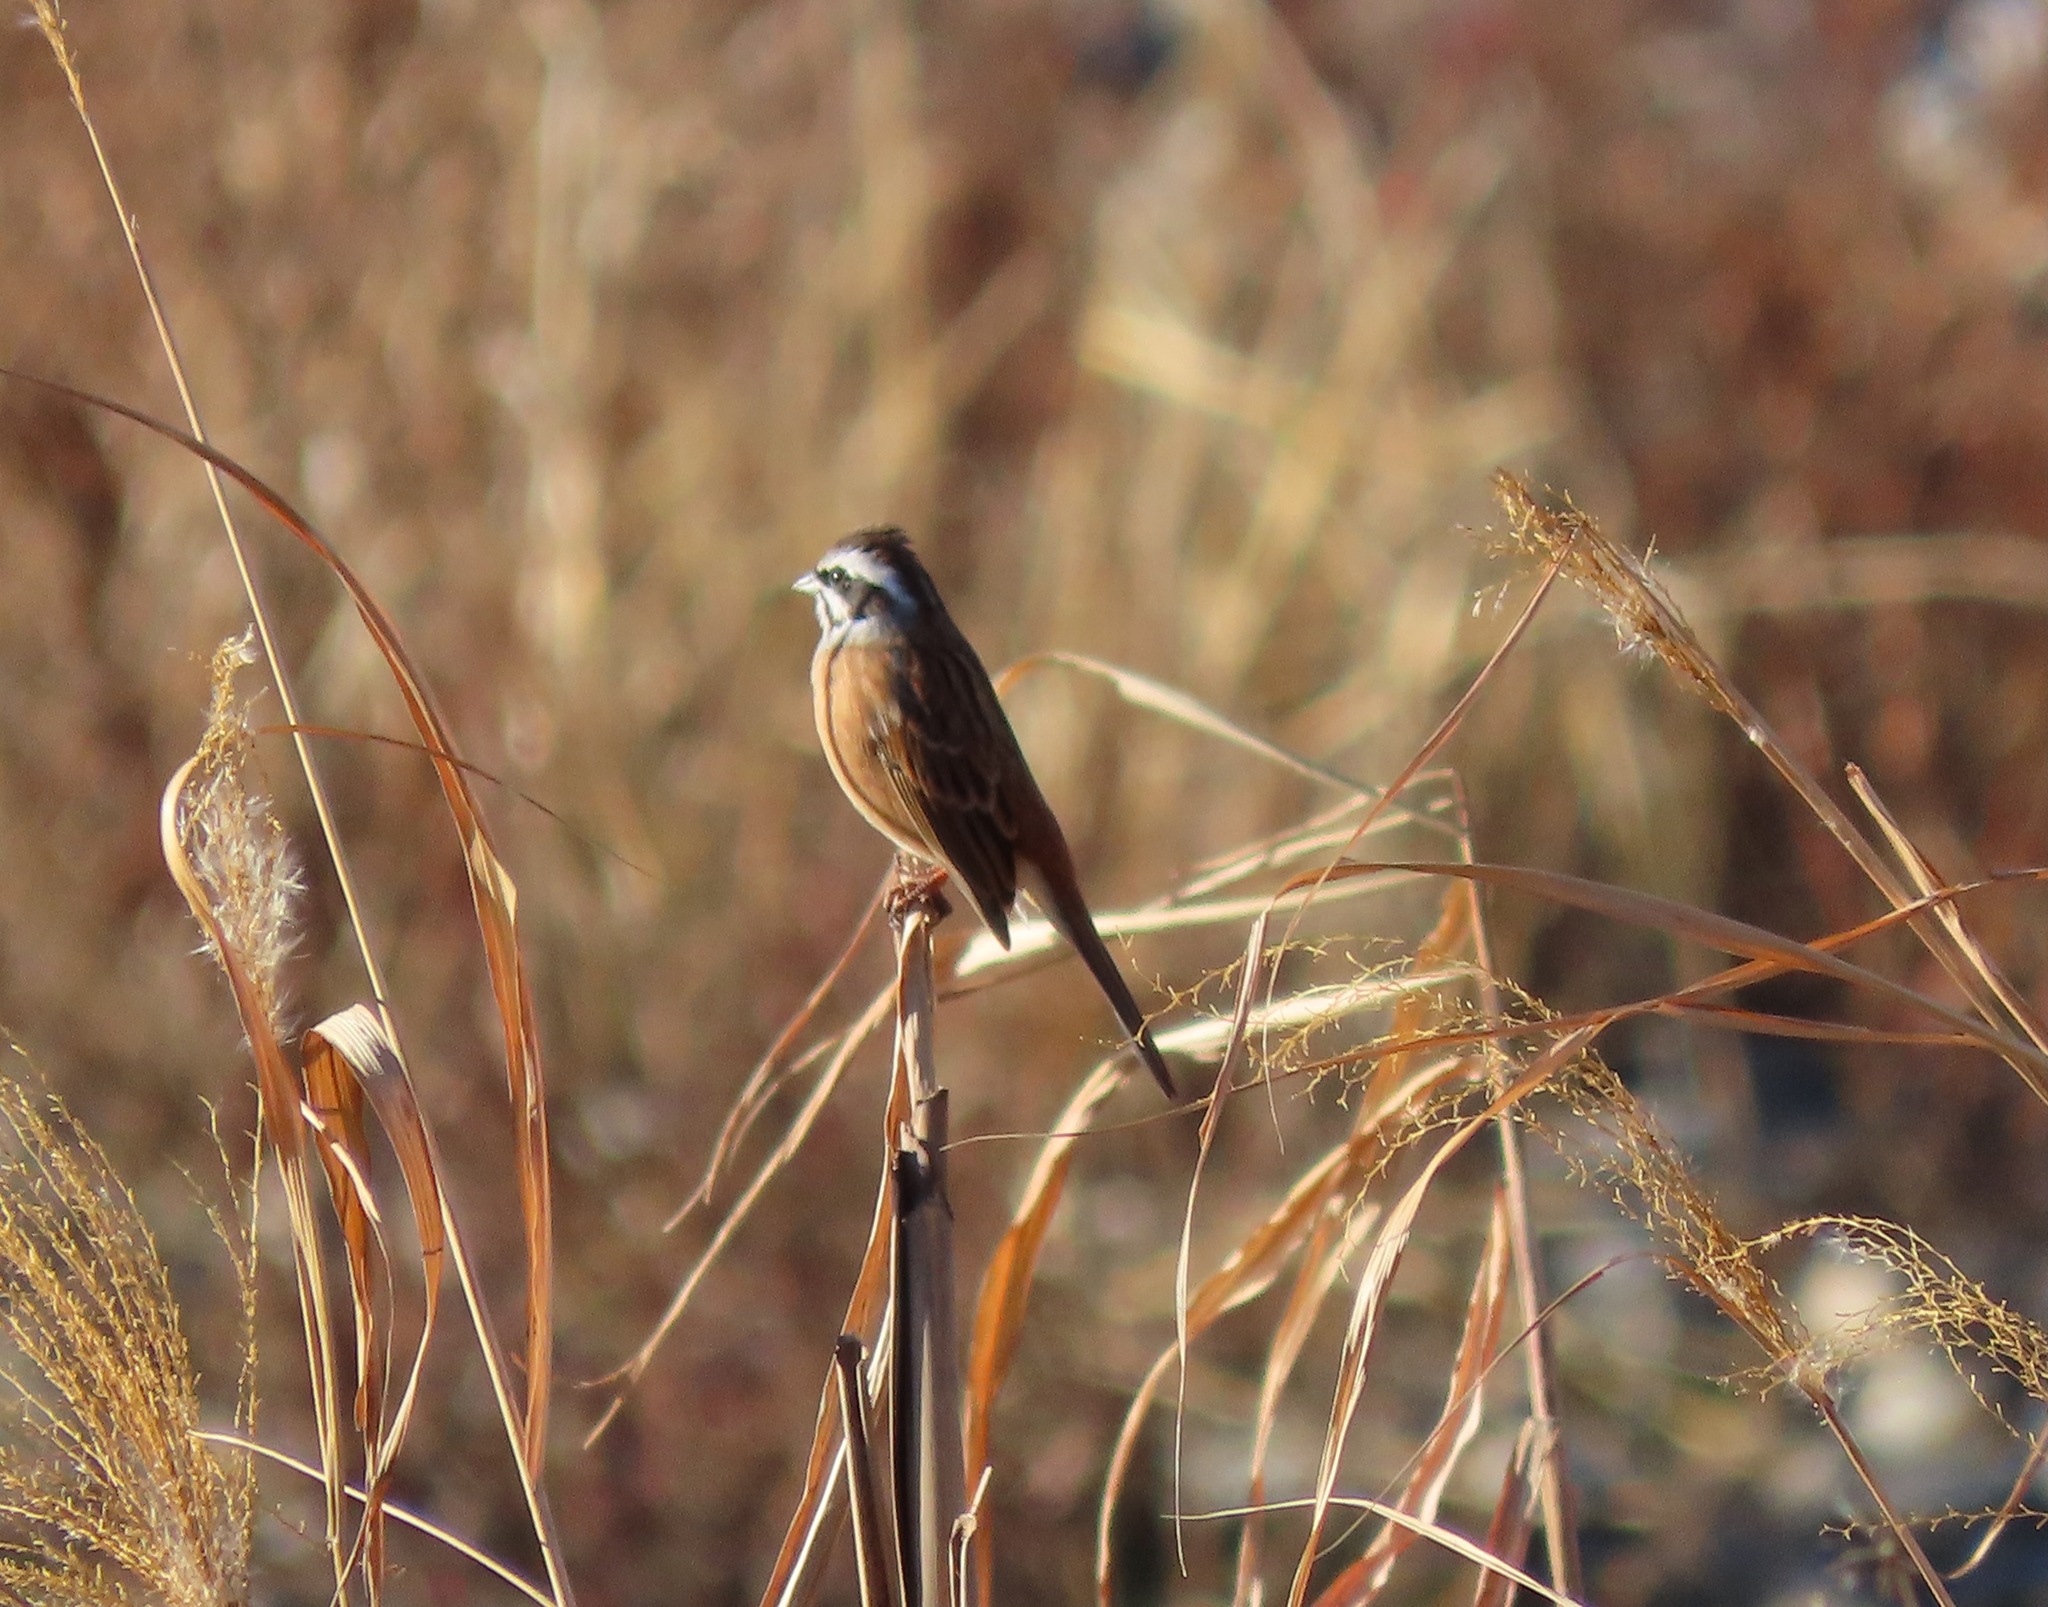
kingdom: Animalia
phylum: Chordata
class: Aves
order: Passeriformes
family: Emberizidae
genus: Emberiza
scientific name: Emberiza cioides
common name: Meadow bunting
